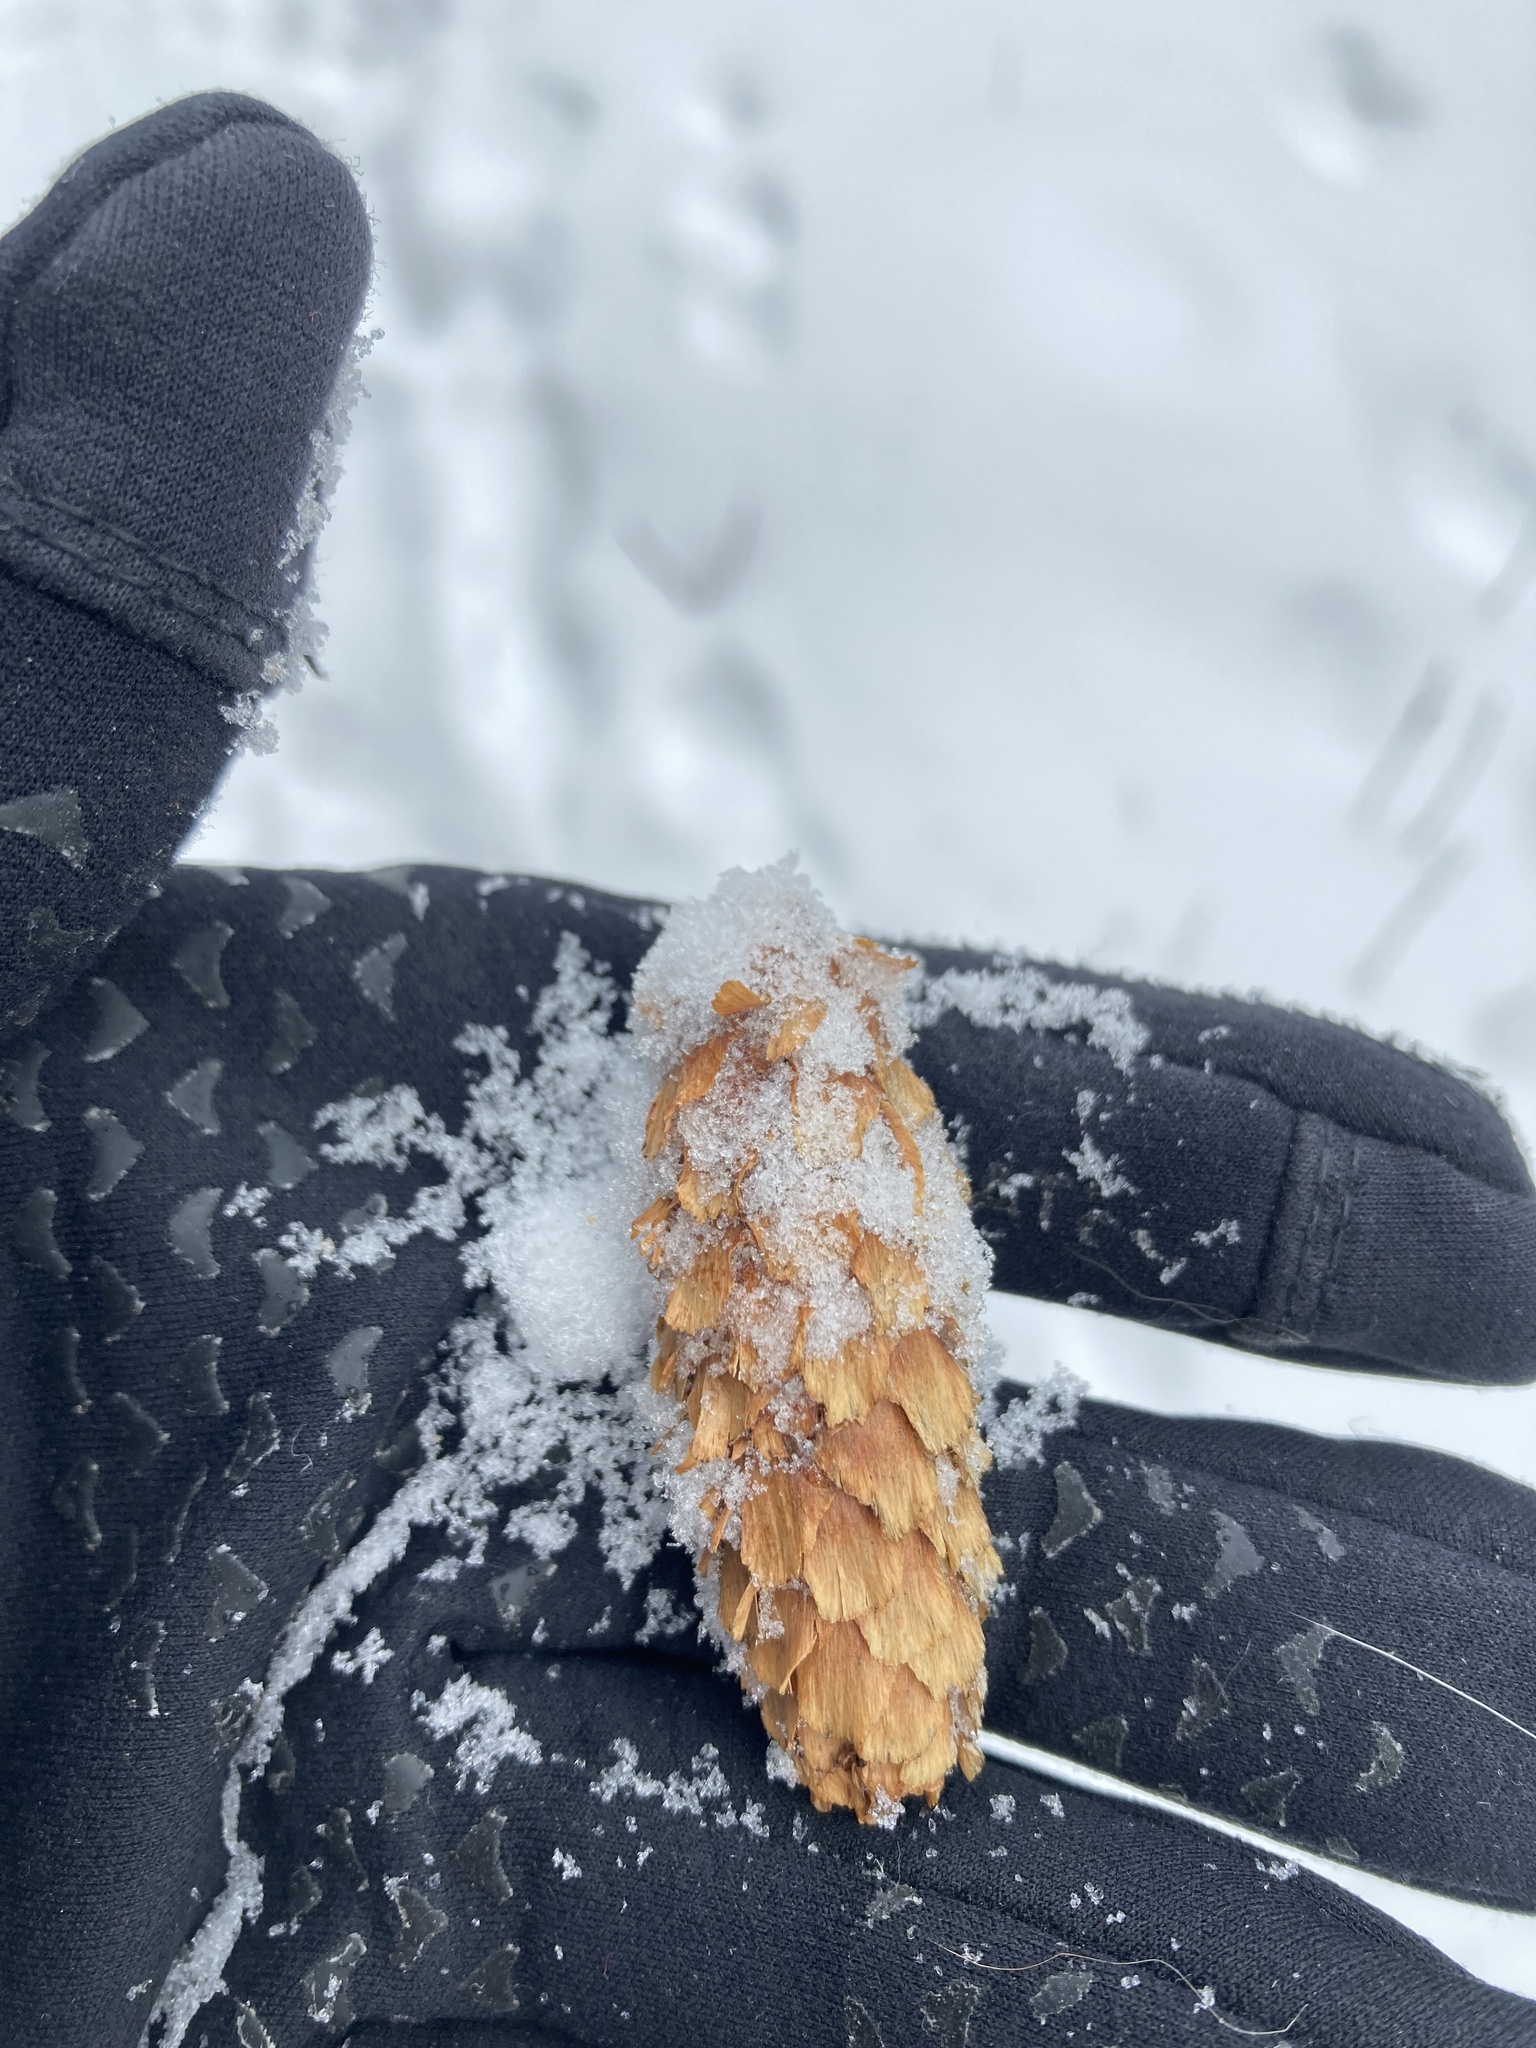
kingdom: Plantae
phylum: Tracheophyta
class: Pinopsida
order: Pinales
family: Pinaceae
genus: Picea
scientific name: Picea engelmannii
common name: Engelmann spruce
